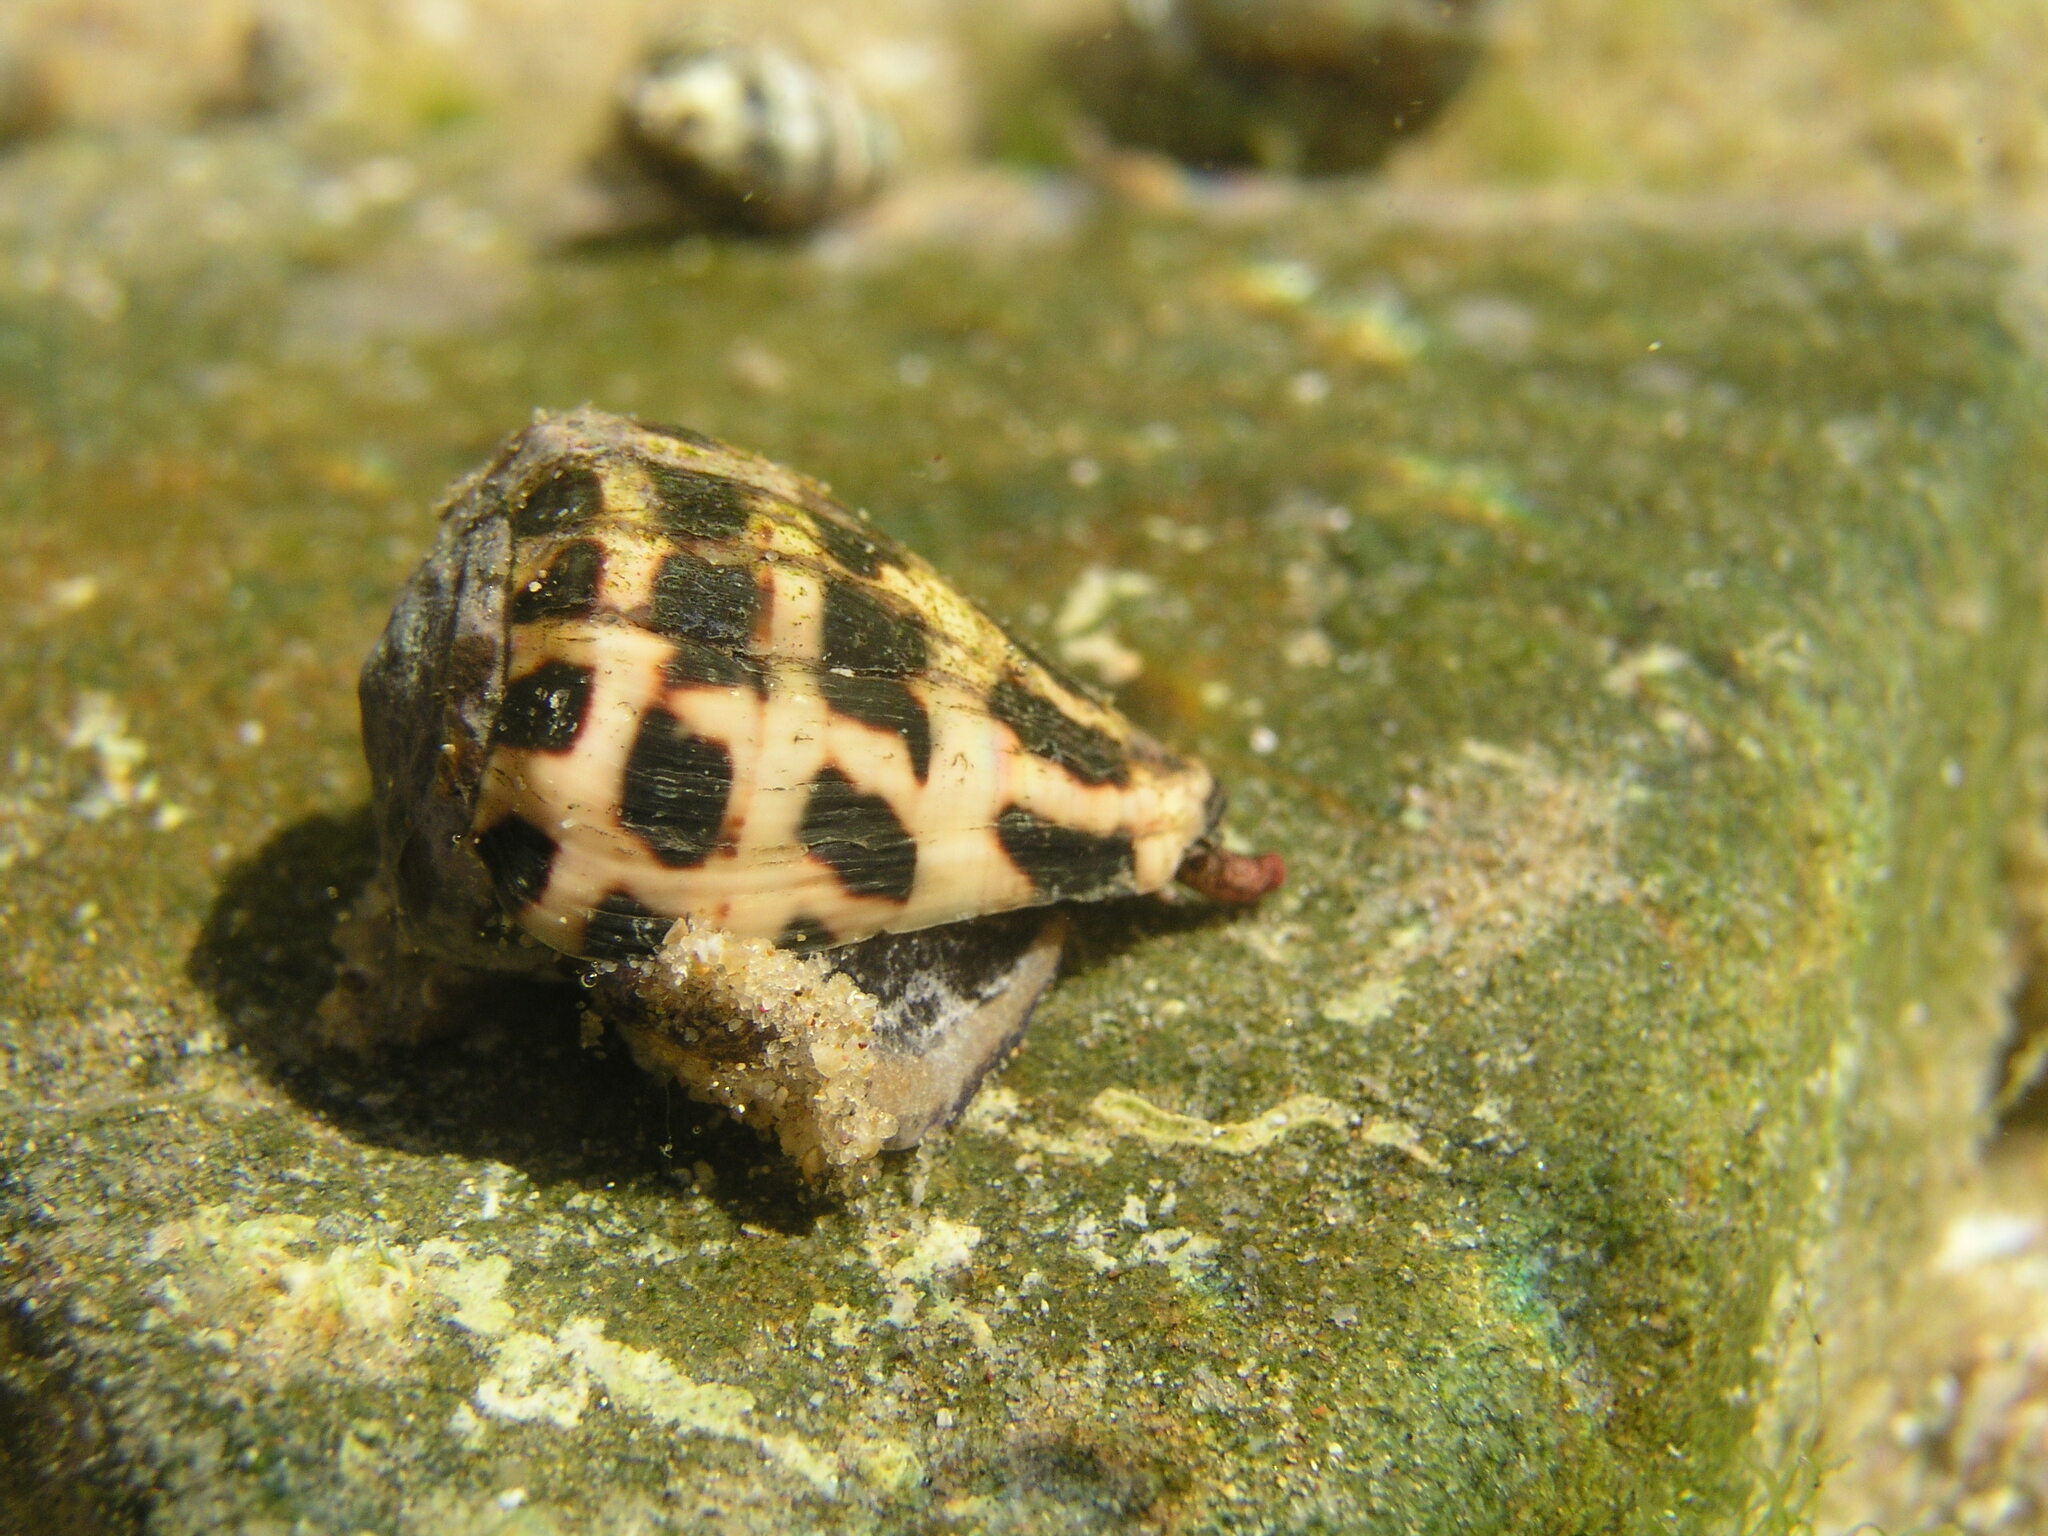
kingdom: Animalia
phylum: Mollusca
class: Gastropoda
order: Neogastropoda
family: Conidae
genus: Conus
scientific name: Conus ebraeus
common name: Hebrew cone
